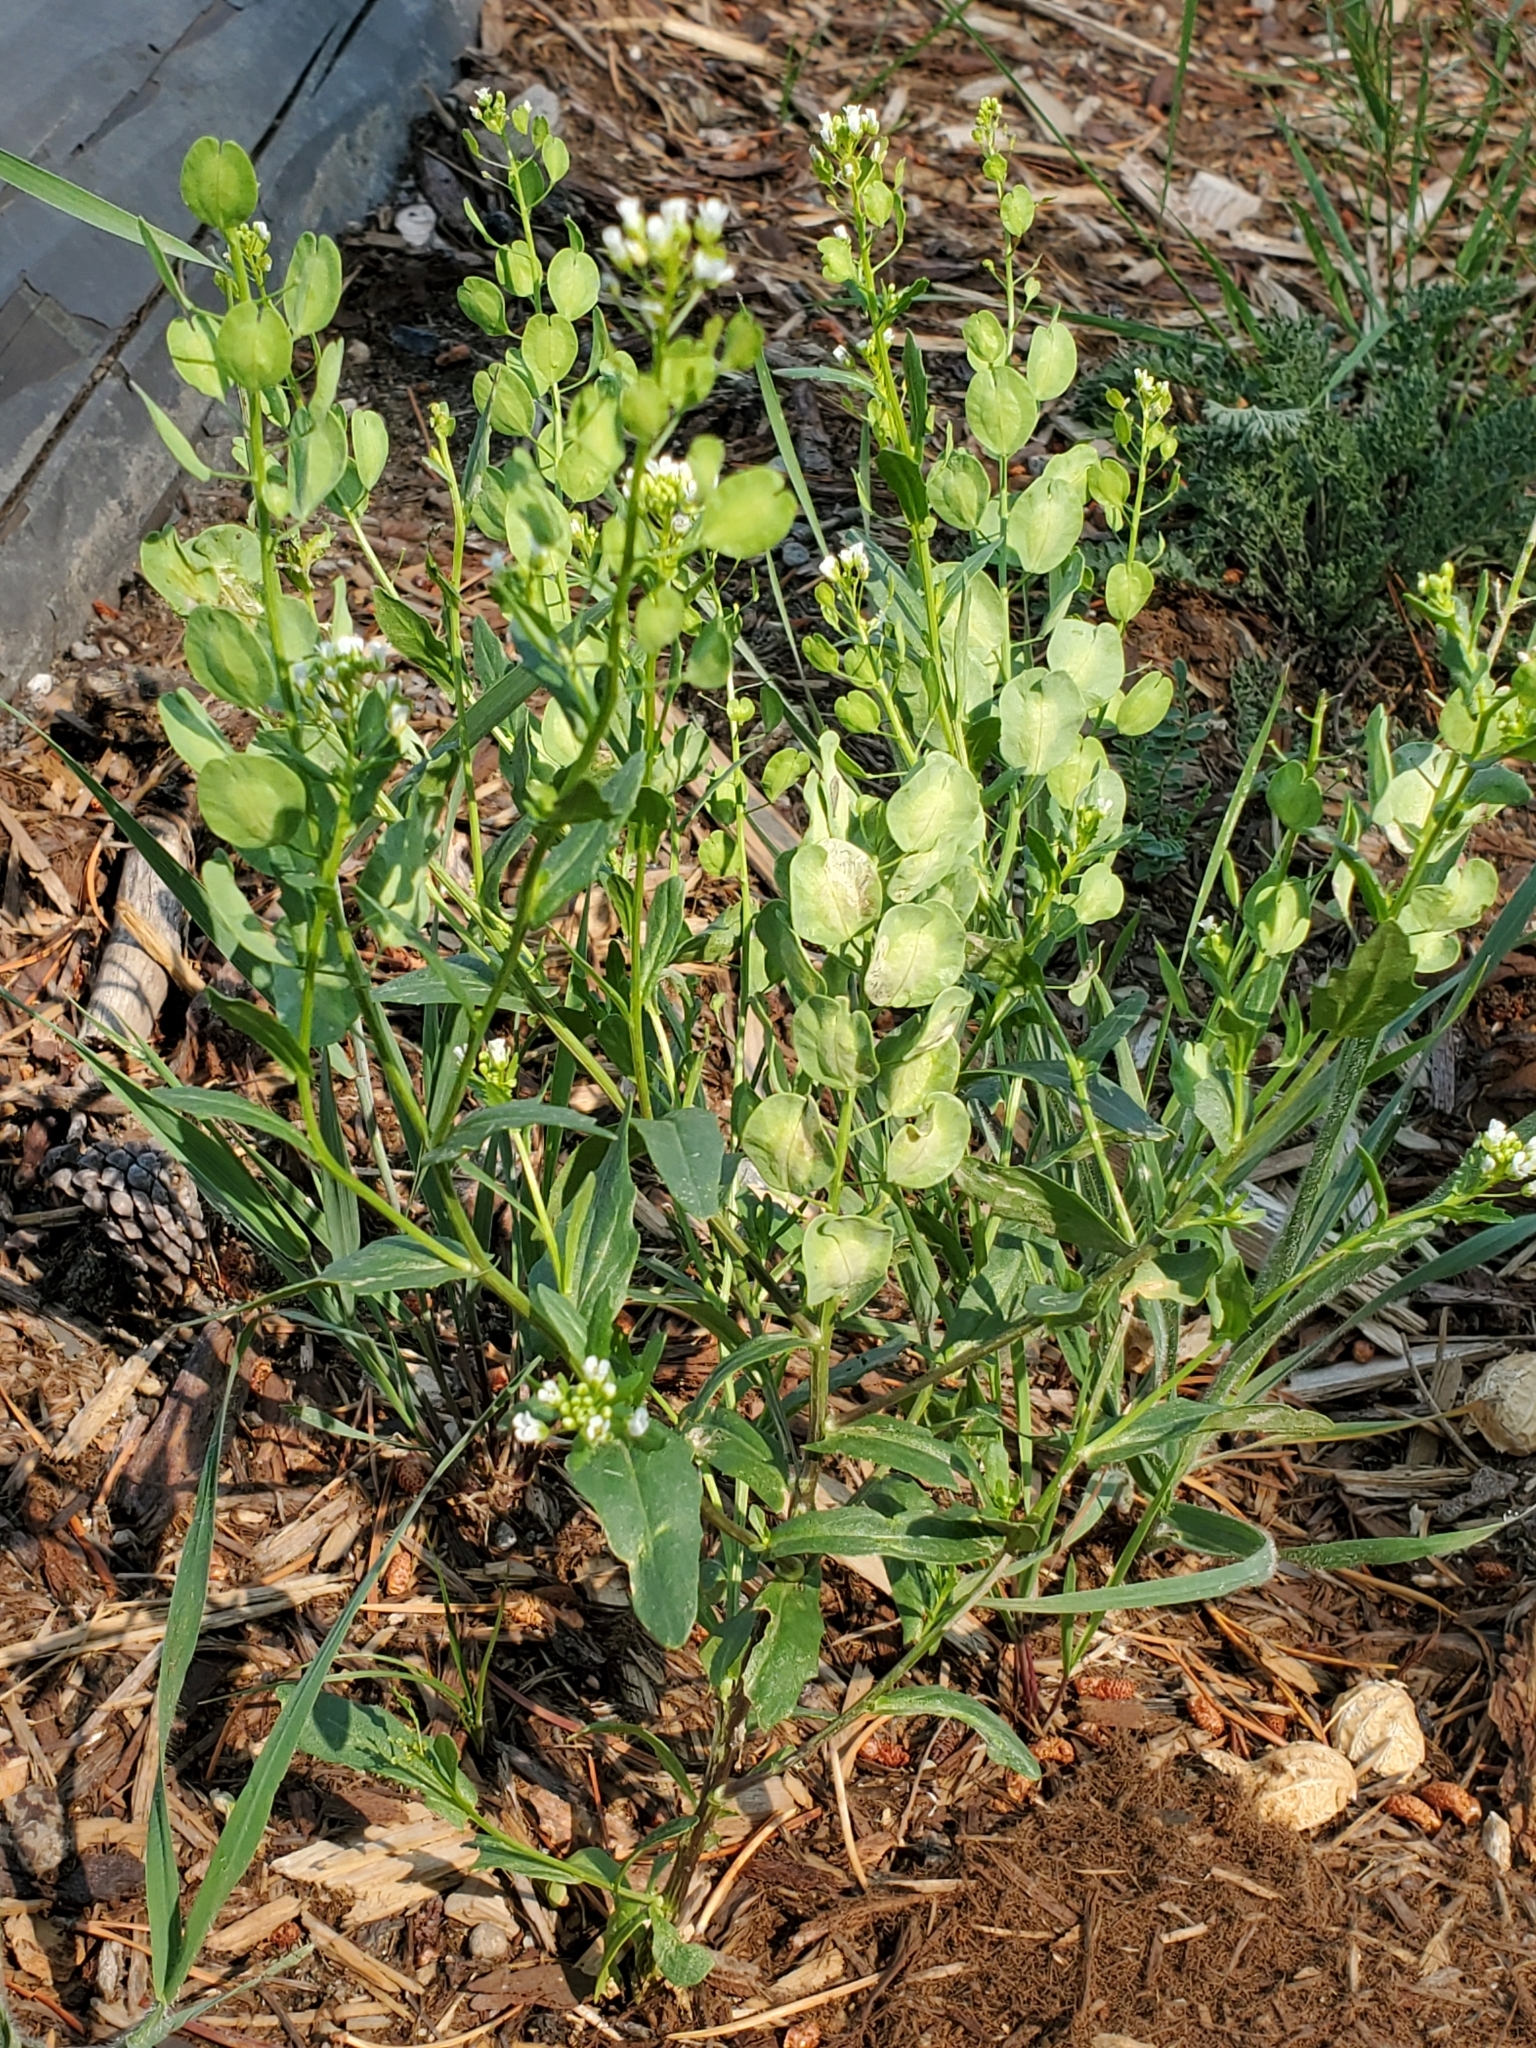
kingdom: Plantae
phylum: Tracheophyta
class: Magnoliopsida
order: Brassicales
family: Brassicaceae
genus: Thlaspi
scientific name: Thlaspi arvense
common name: Field pennycress
